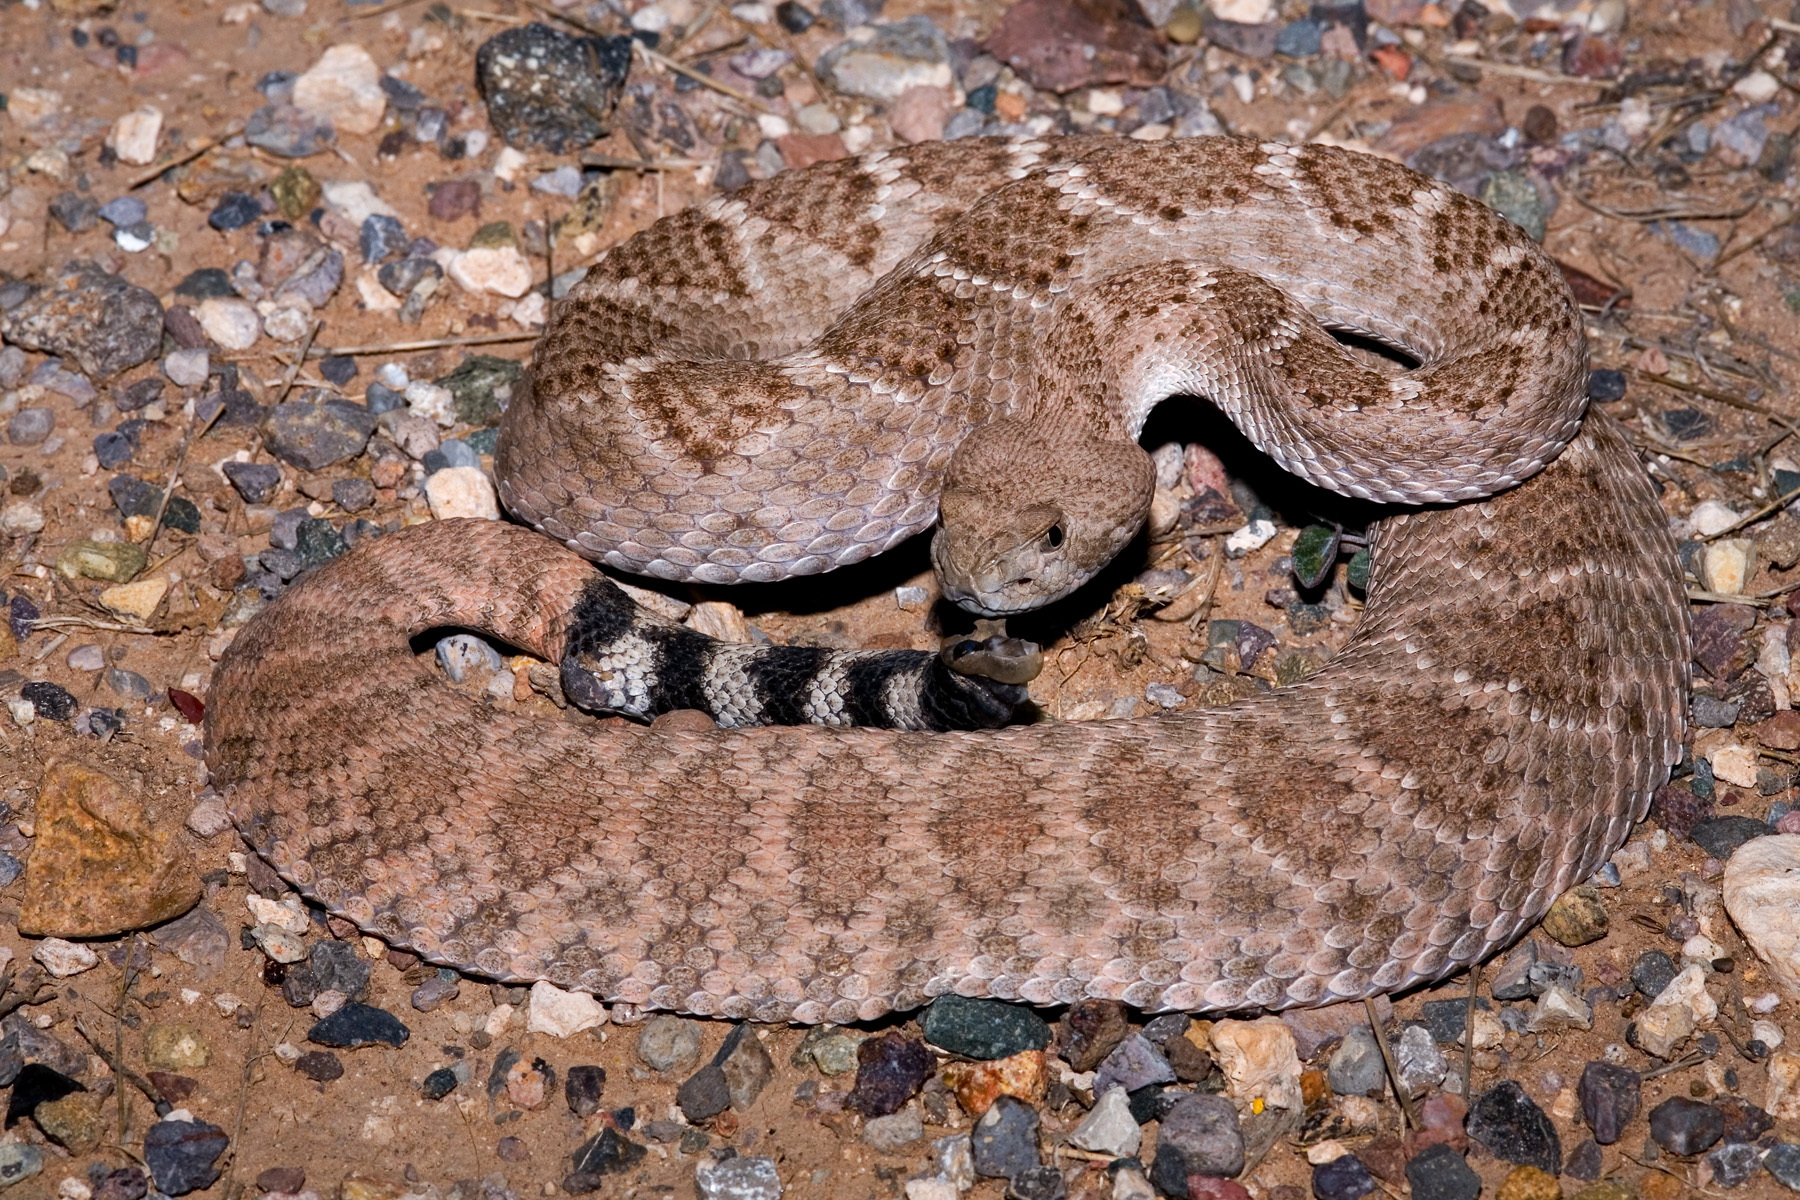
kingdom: Animalia
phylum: Chordata
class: Squamata
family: Viperidae
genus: Crotalus
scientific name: Crotalus atrox
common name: Western diamond-backed rattlesnake
